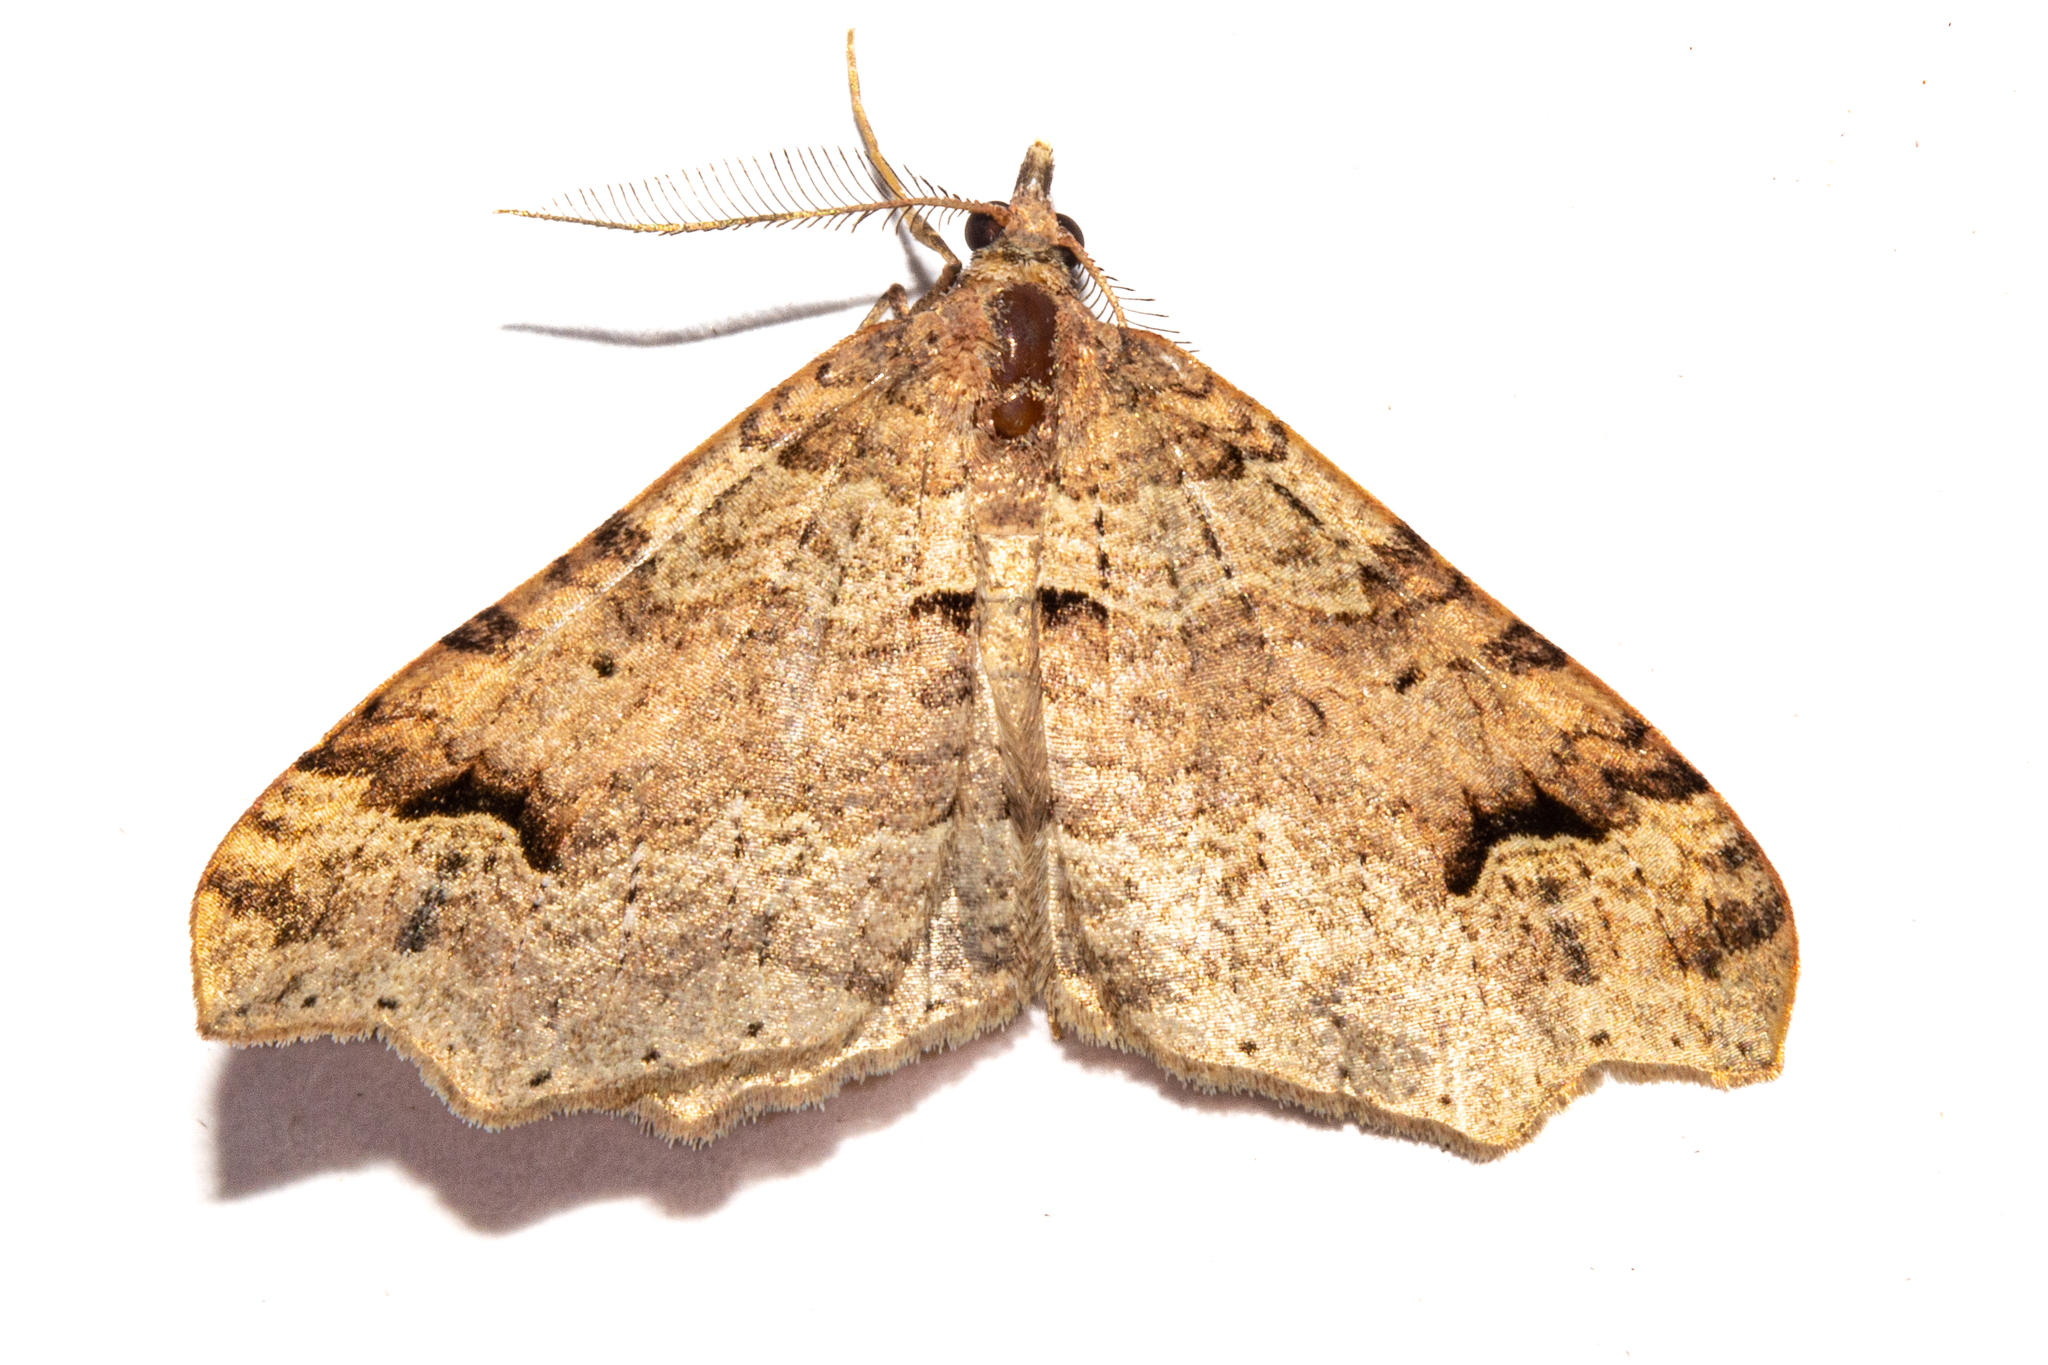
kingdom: Animalia
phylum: Arthropoda
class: Insecta
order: Lepidoptera
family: Geometridae
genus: Austrocidaria
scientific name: Austrocidaria parora
